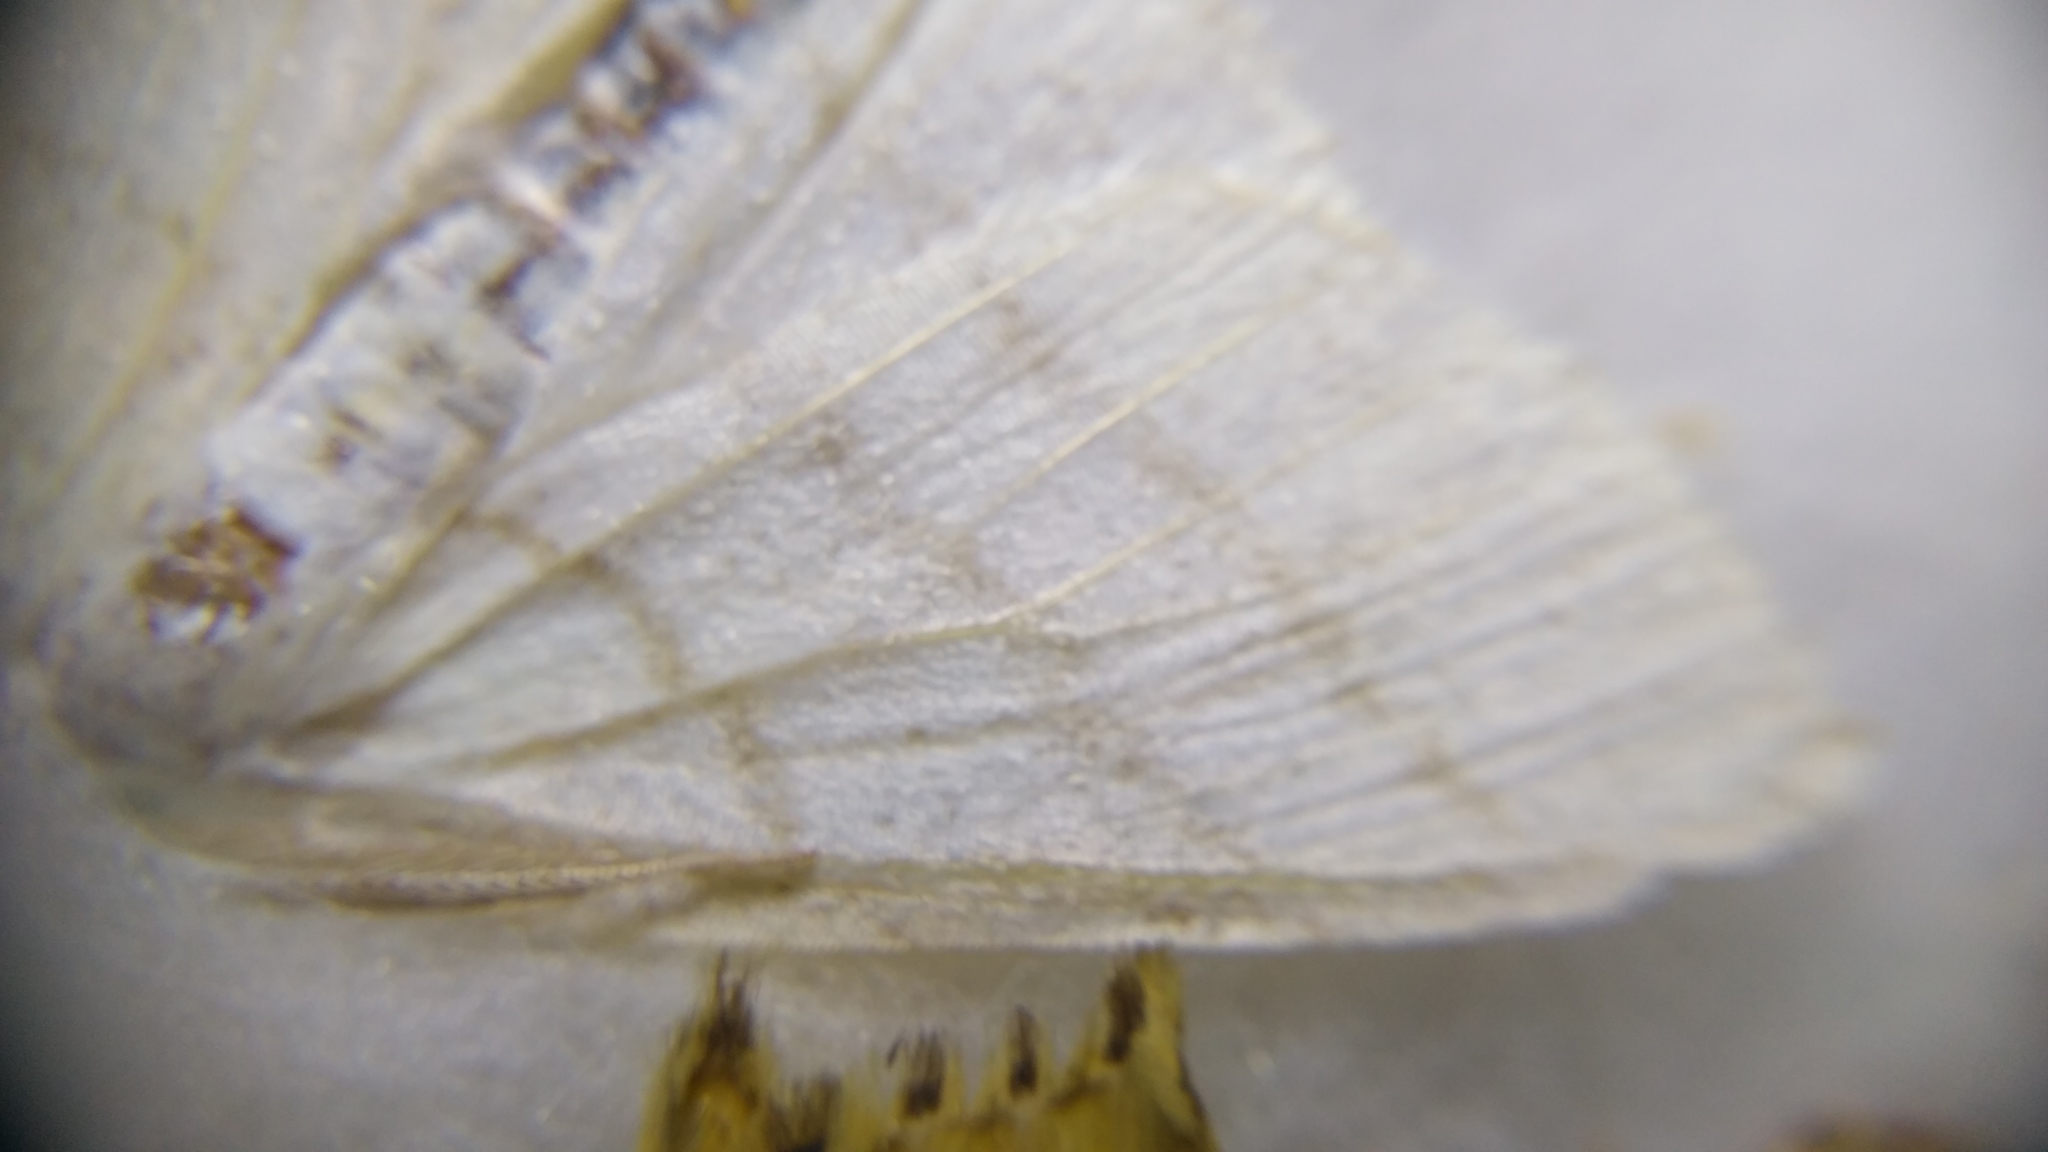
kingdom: Animalia
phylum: Arthropoda
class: Insecta
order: Lepidoptera
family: Geometridae
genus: Cabera
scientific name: Cabera pusaria
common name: Common white wave
